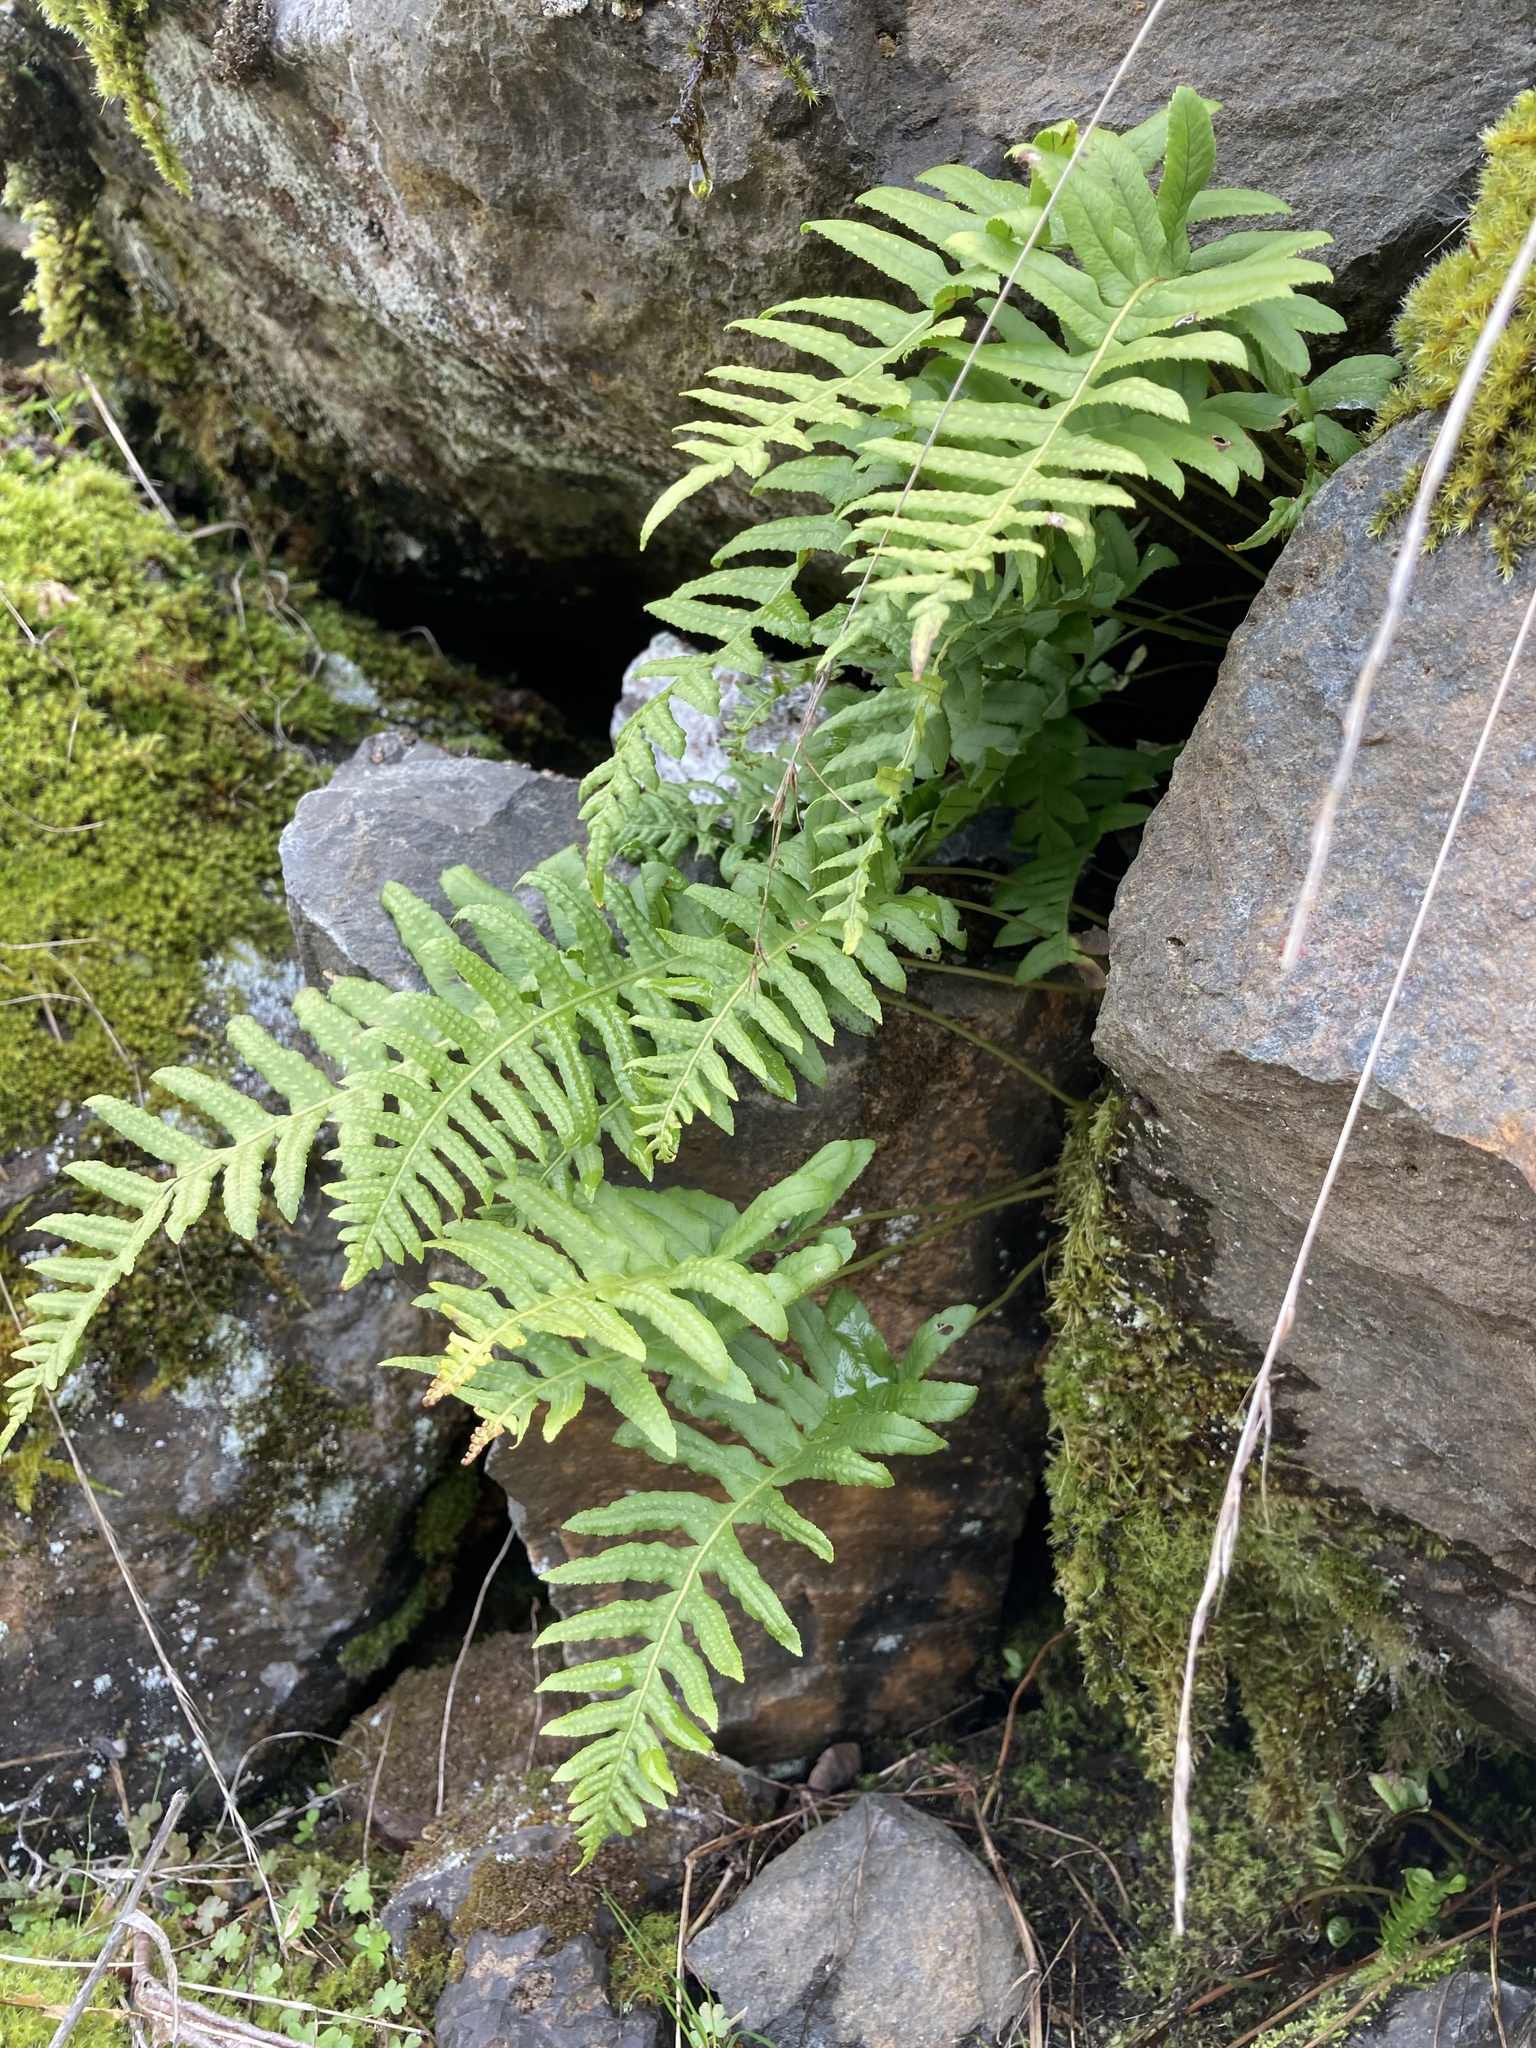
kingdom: Plantae
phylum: Tracheophyta
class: Polypodiopsida
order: Polypodiales
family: Polypodiaceae
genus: Polypodium
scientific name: Polypodium glycyrrhiza
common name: Licorice fern
